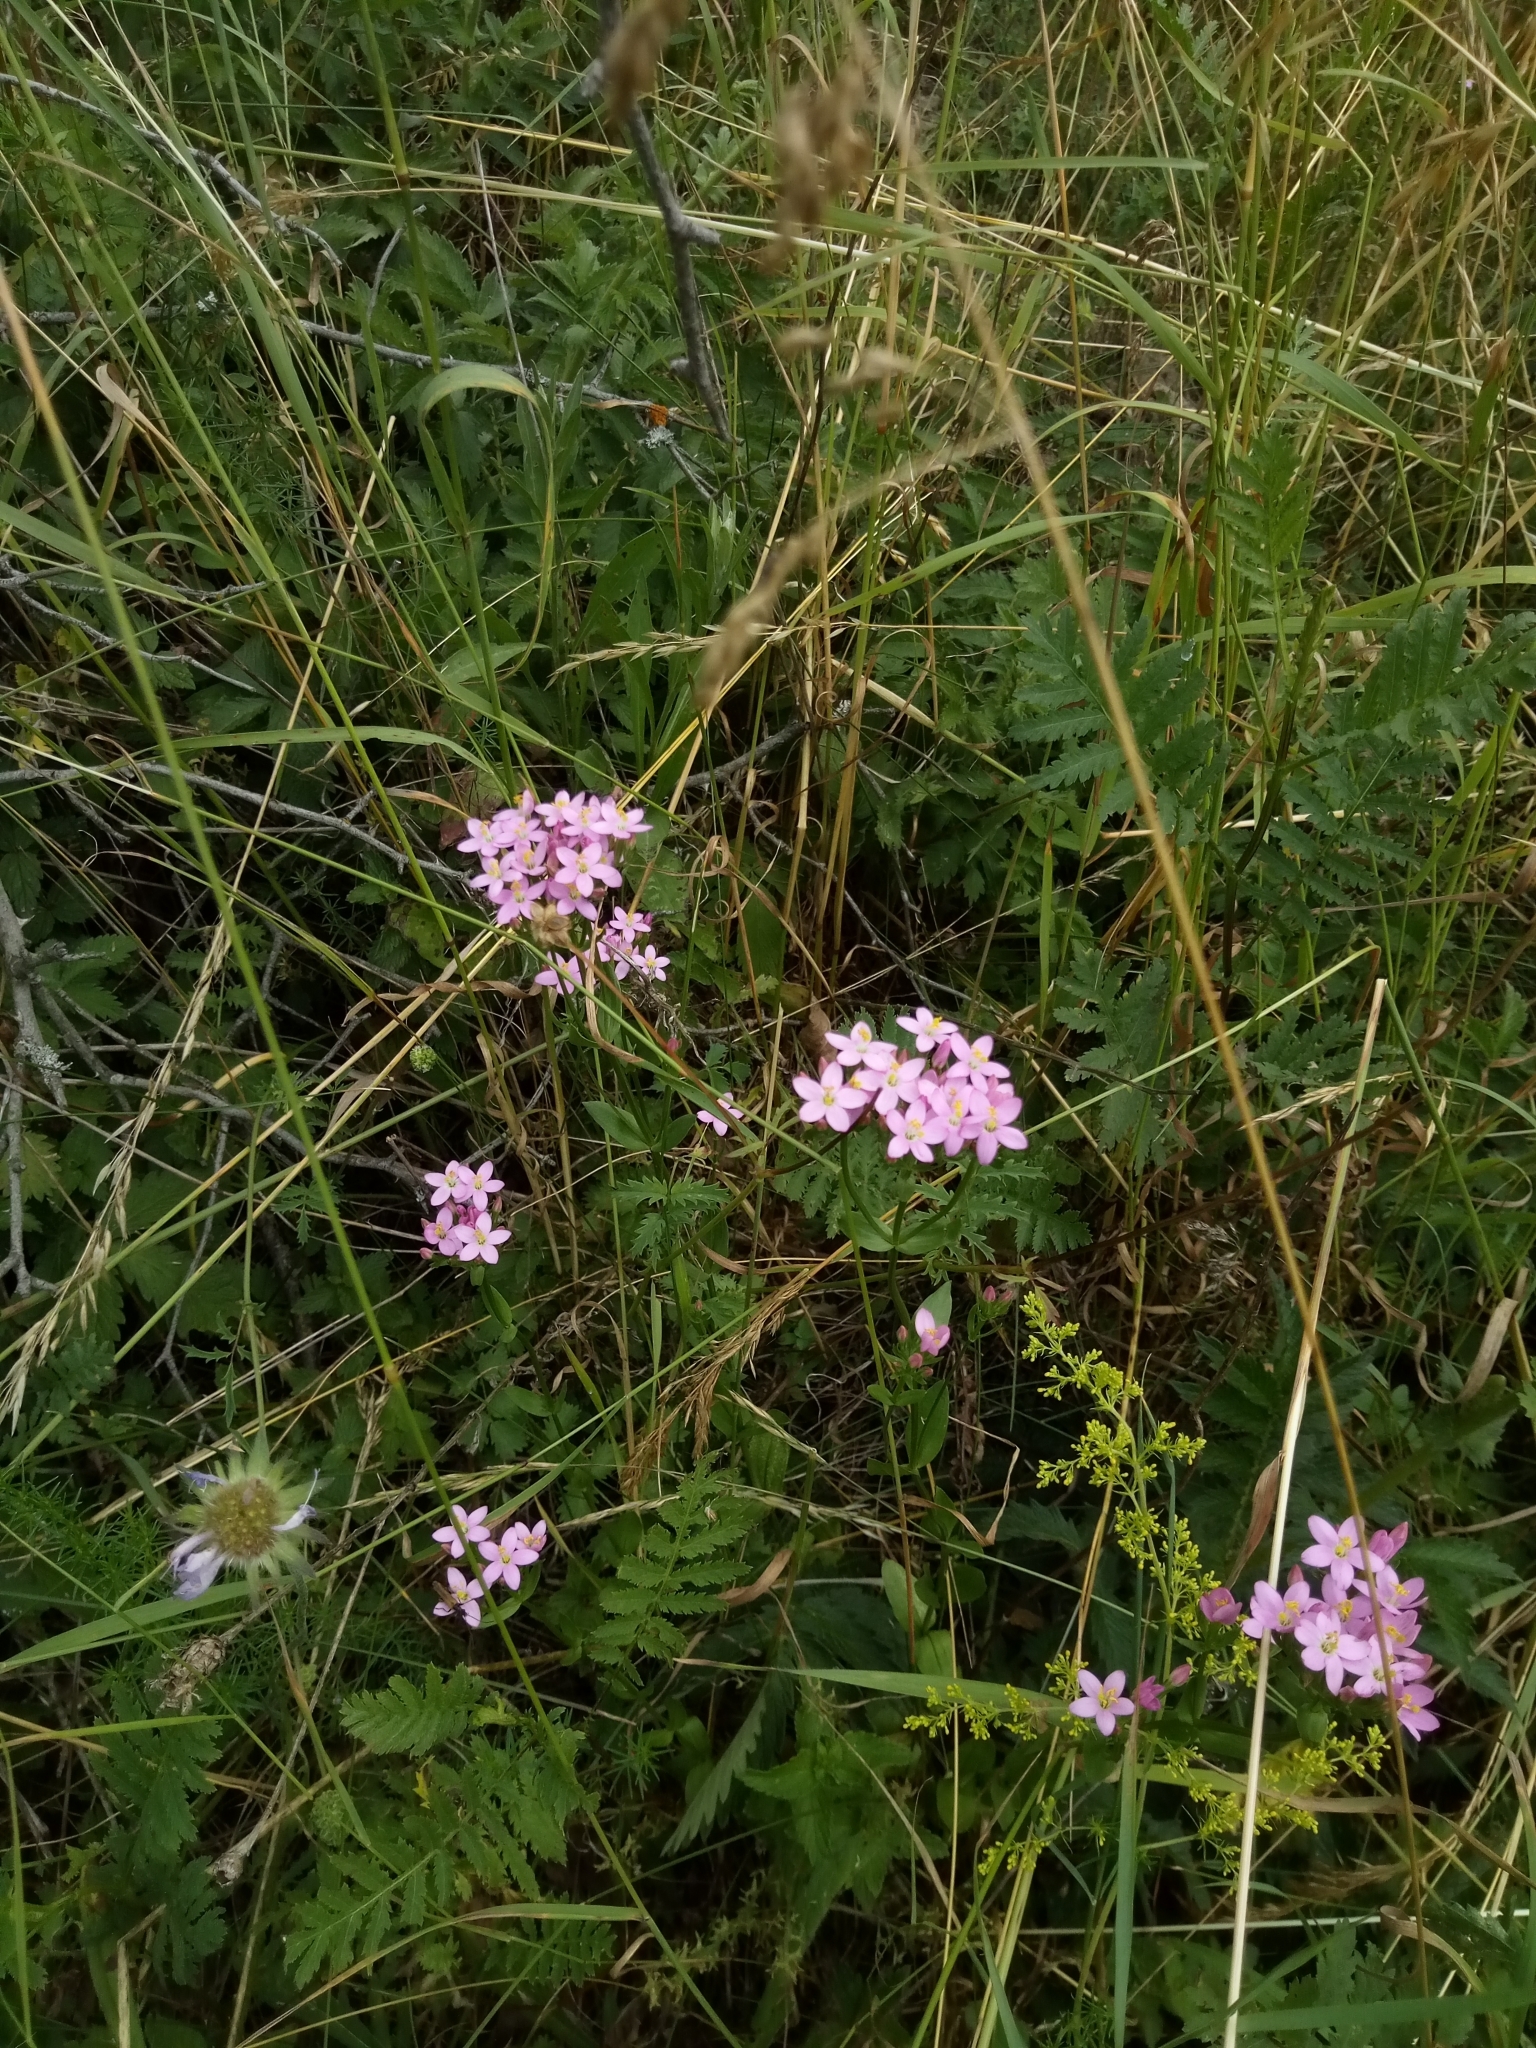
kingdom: Plantae
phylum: Tracheophyta
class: Magnoliopsida
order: Gentianales
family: Gentianaceae
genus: Centaurium
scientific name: Centaurium erythraea
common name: Common centaury
